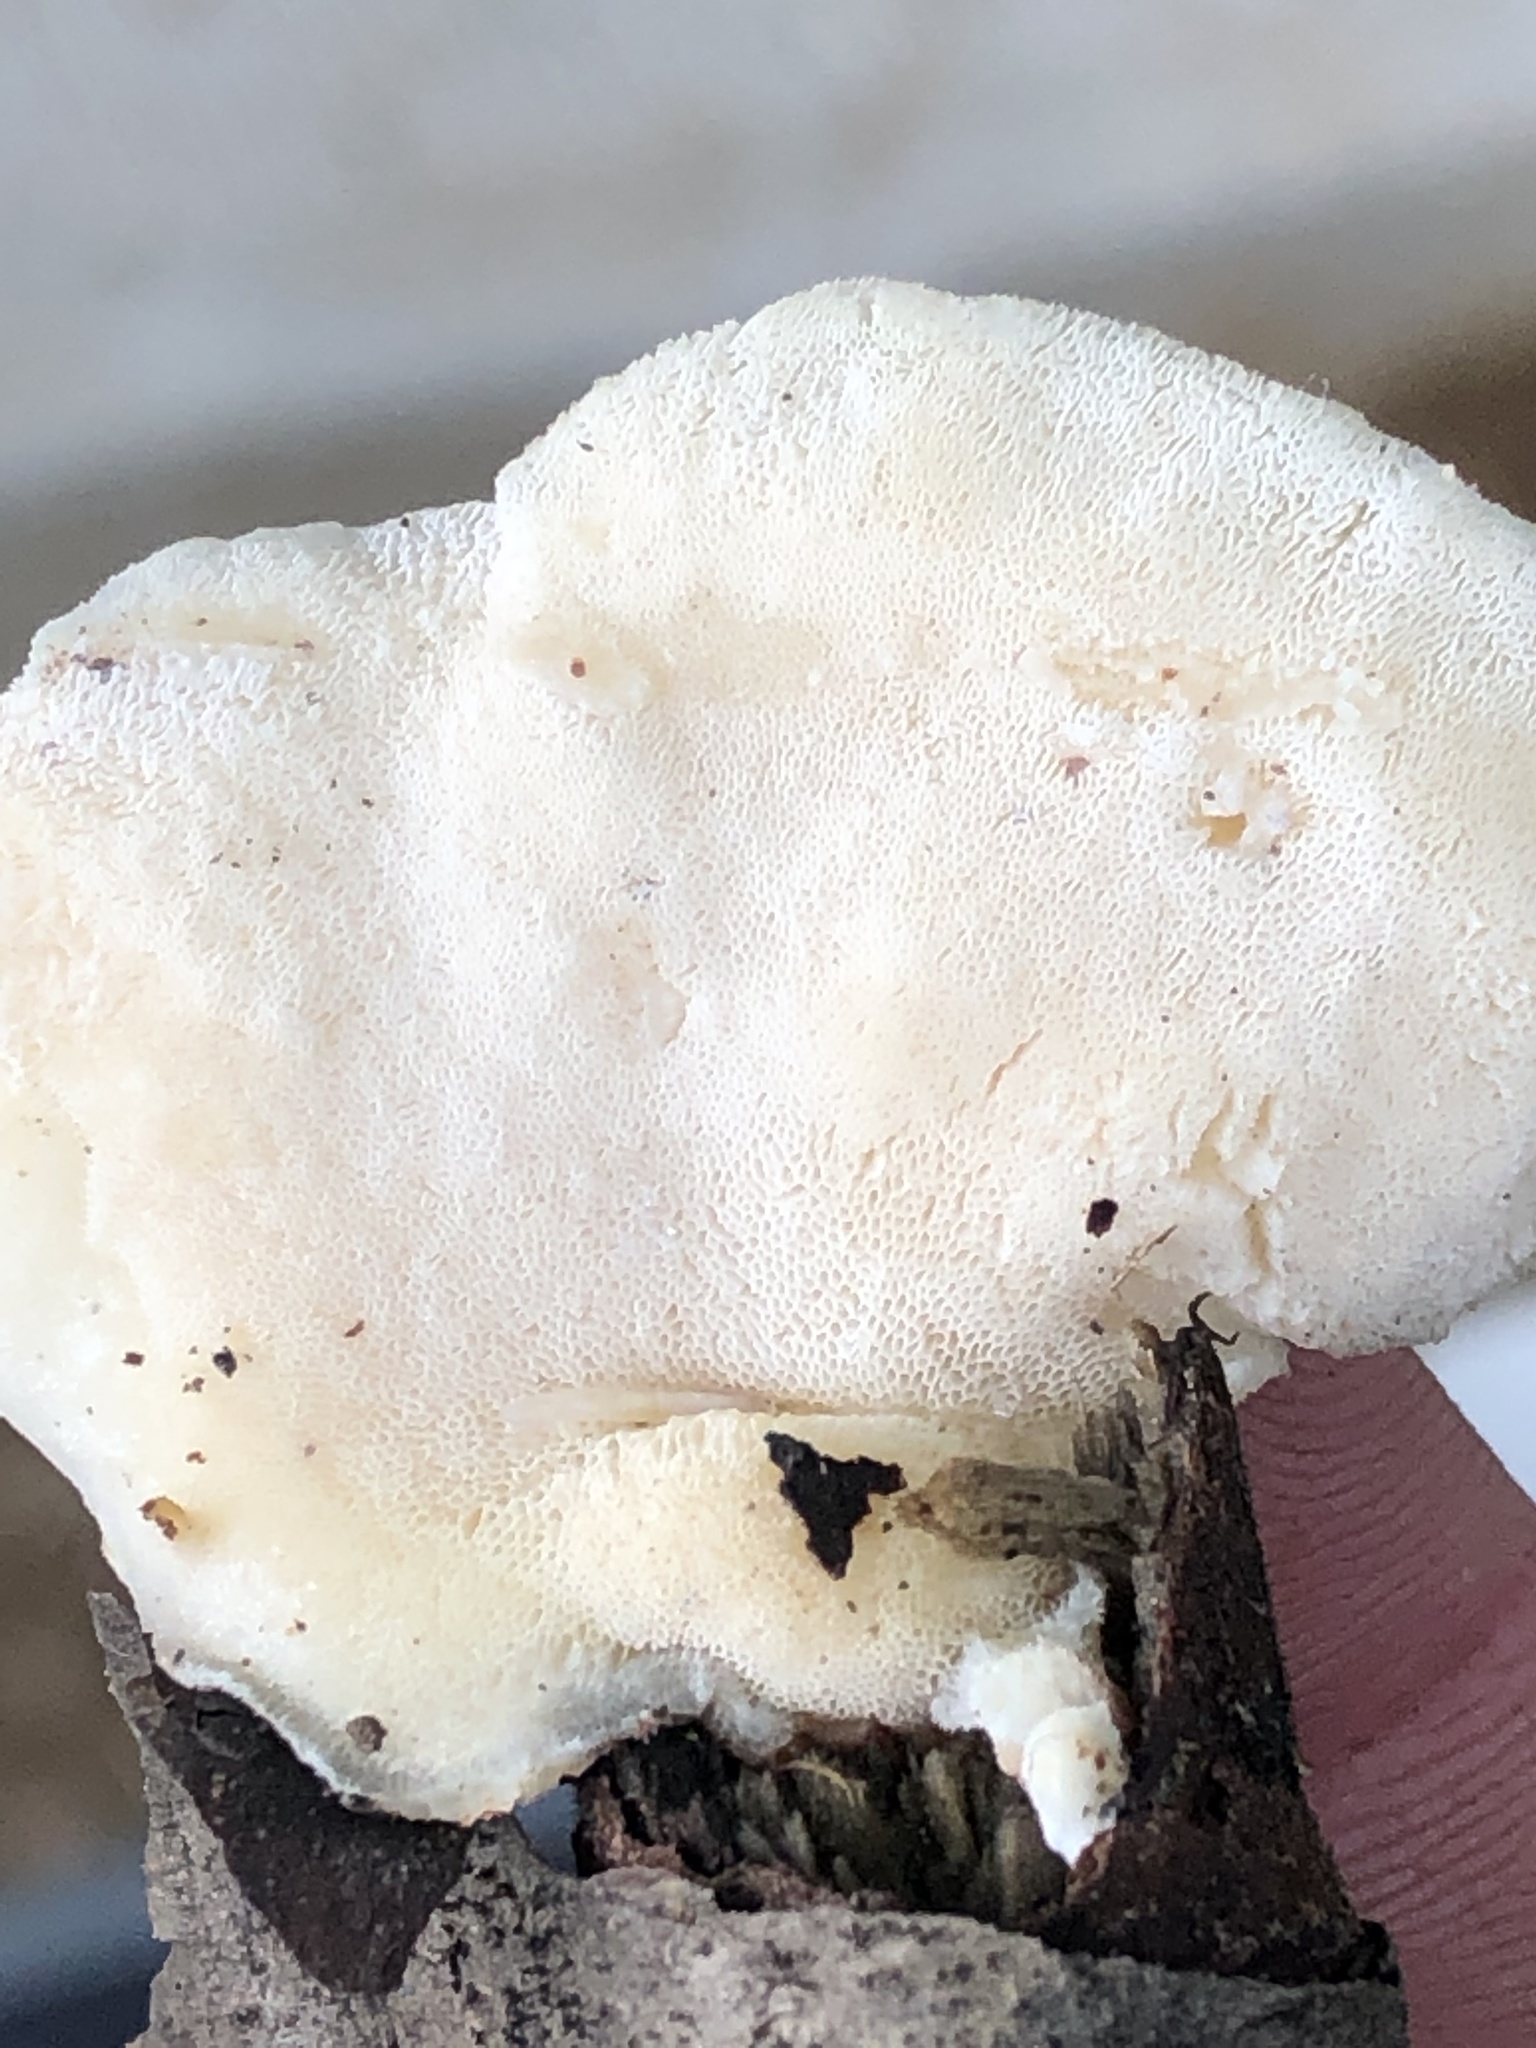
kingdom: Fungi
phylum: Basidiomycota
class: Agaricomycetes
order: Polyporales
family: Incrustoporiaceae
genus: Tyromyces
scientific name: Tyromyces chioneus
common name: White cheese polypore
